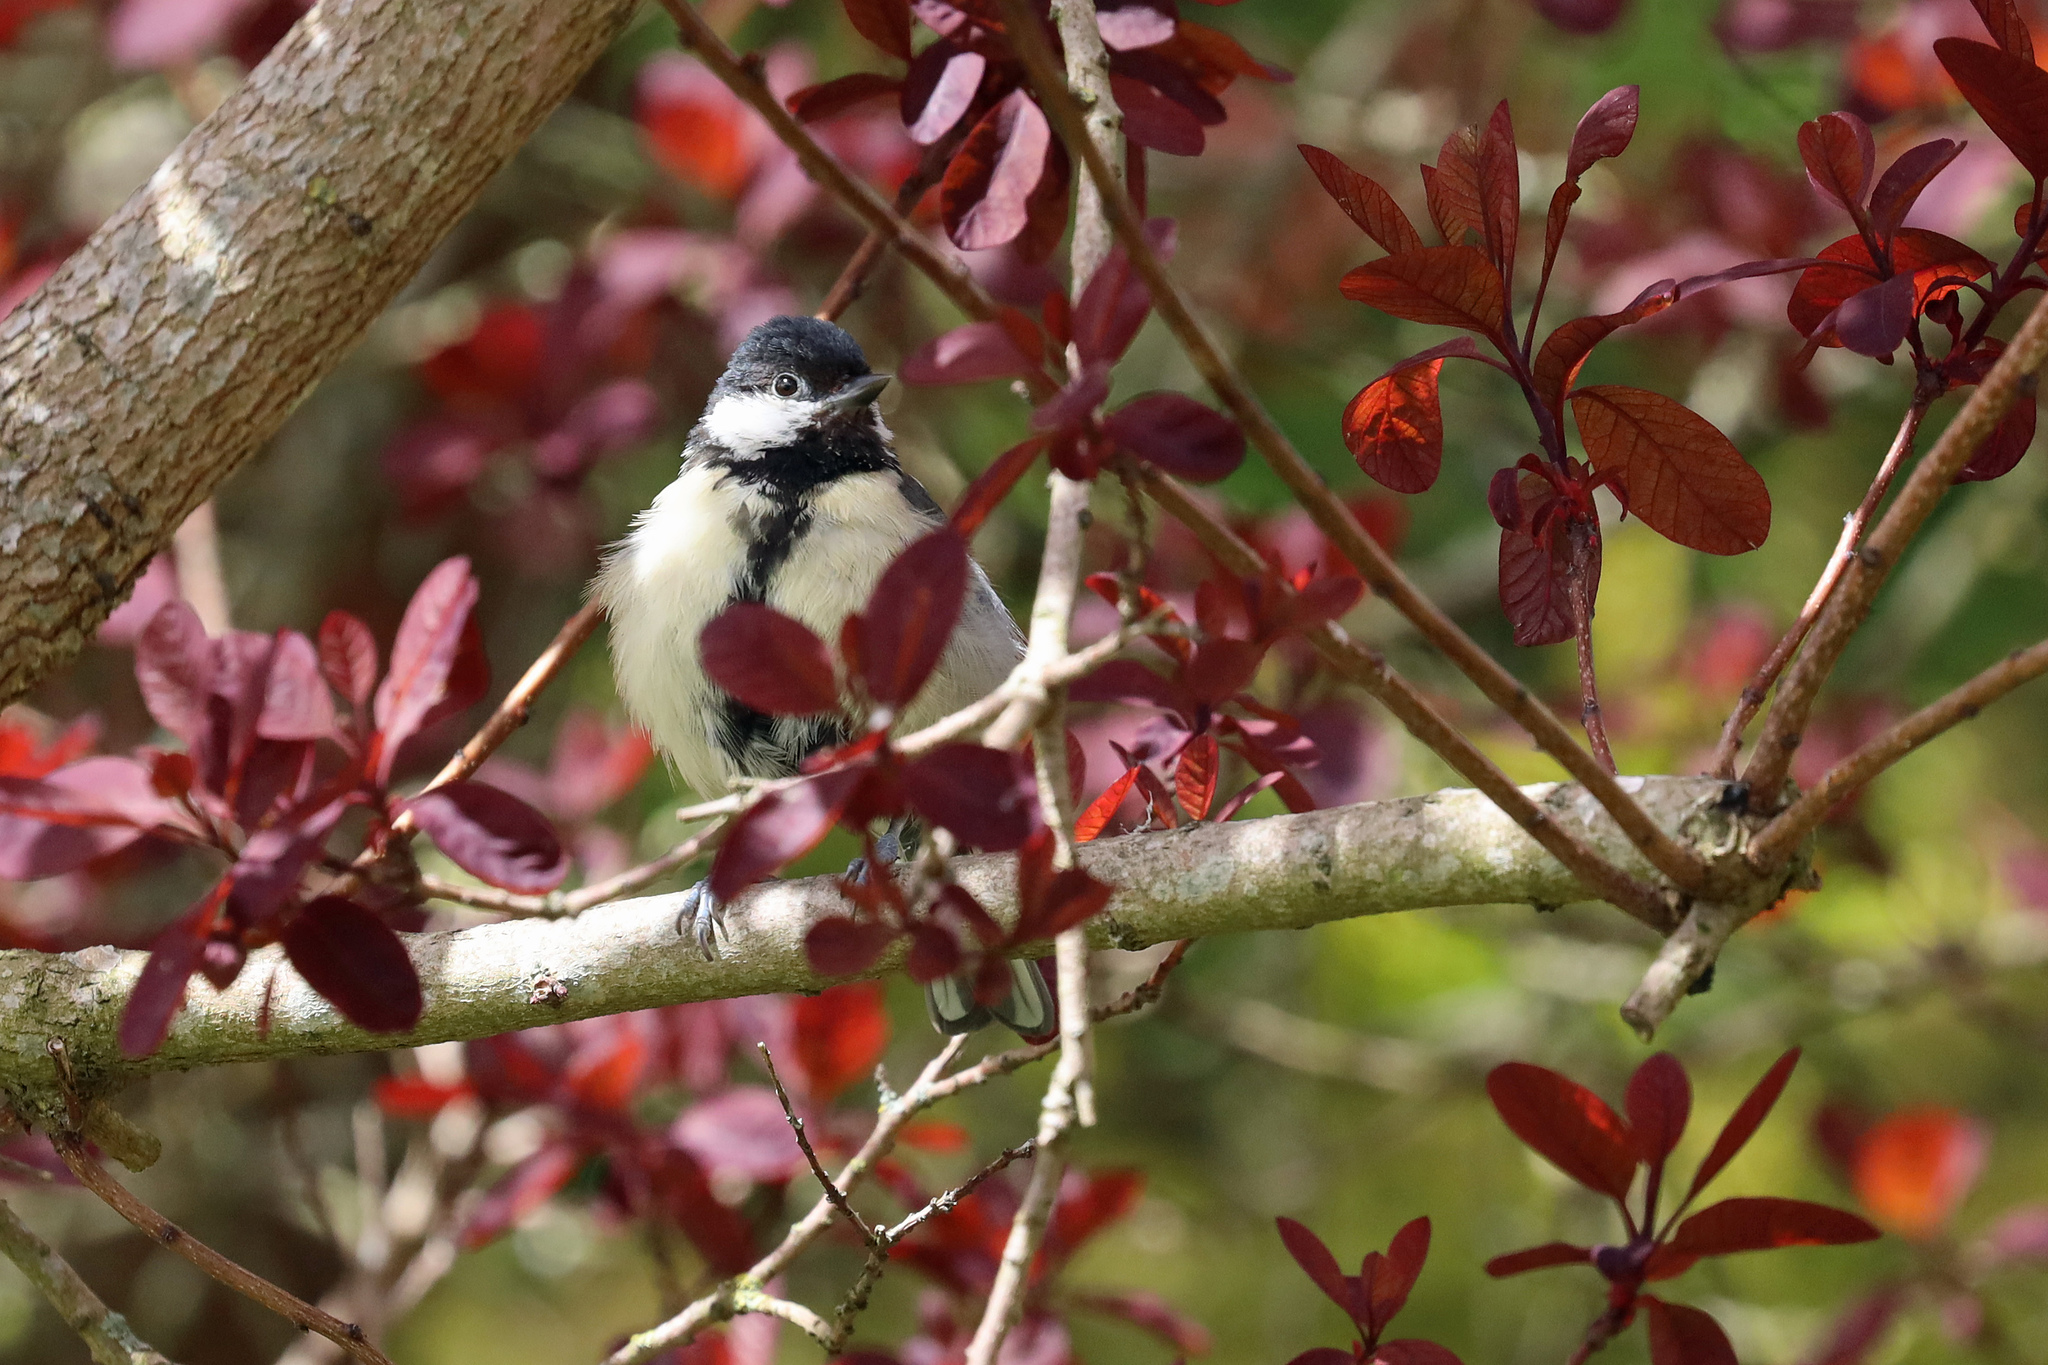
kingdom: Animalia
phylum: Chordata
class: Aves
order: Passeriformes
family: Paridae
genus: Parus
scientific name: Parus major
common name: Great tit
